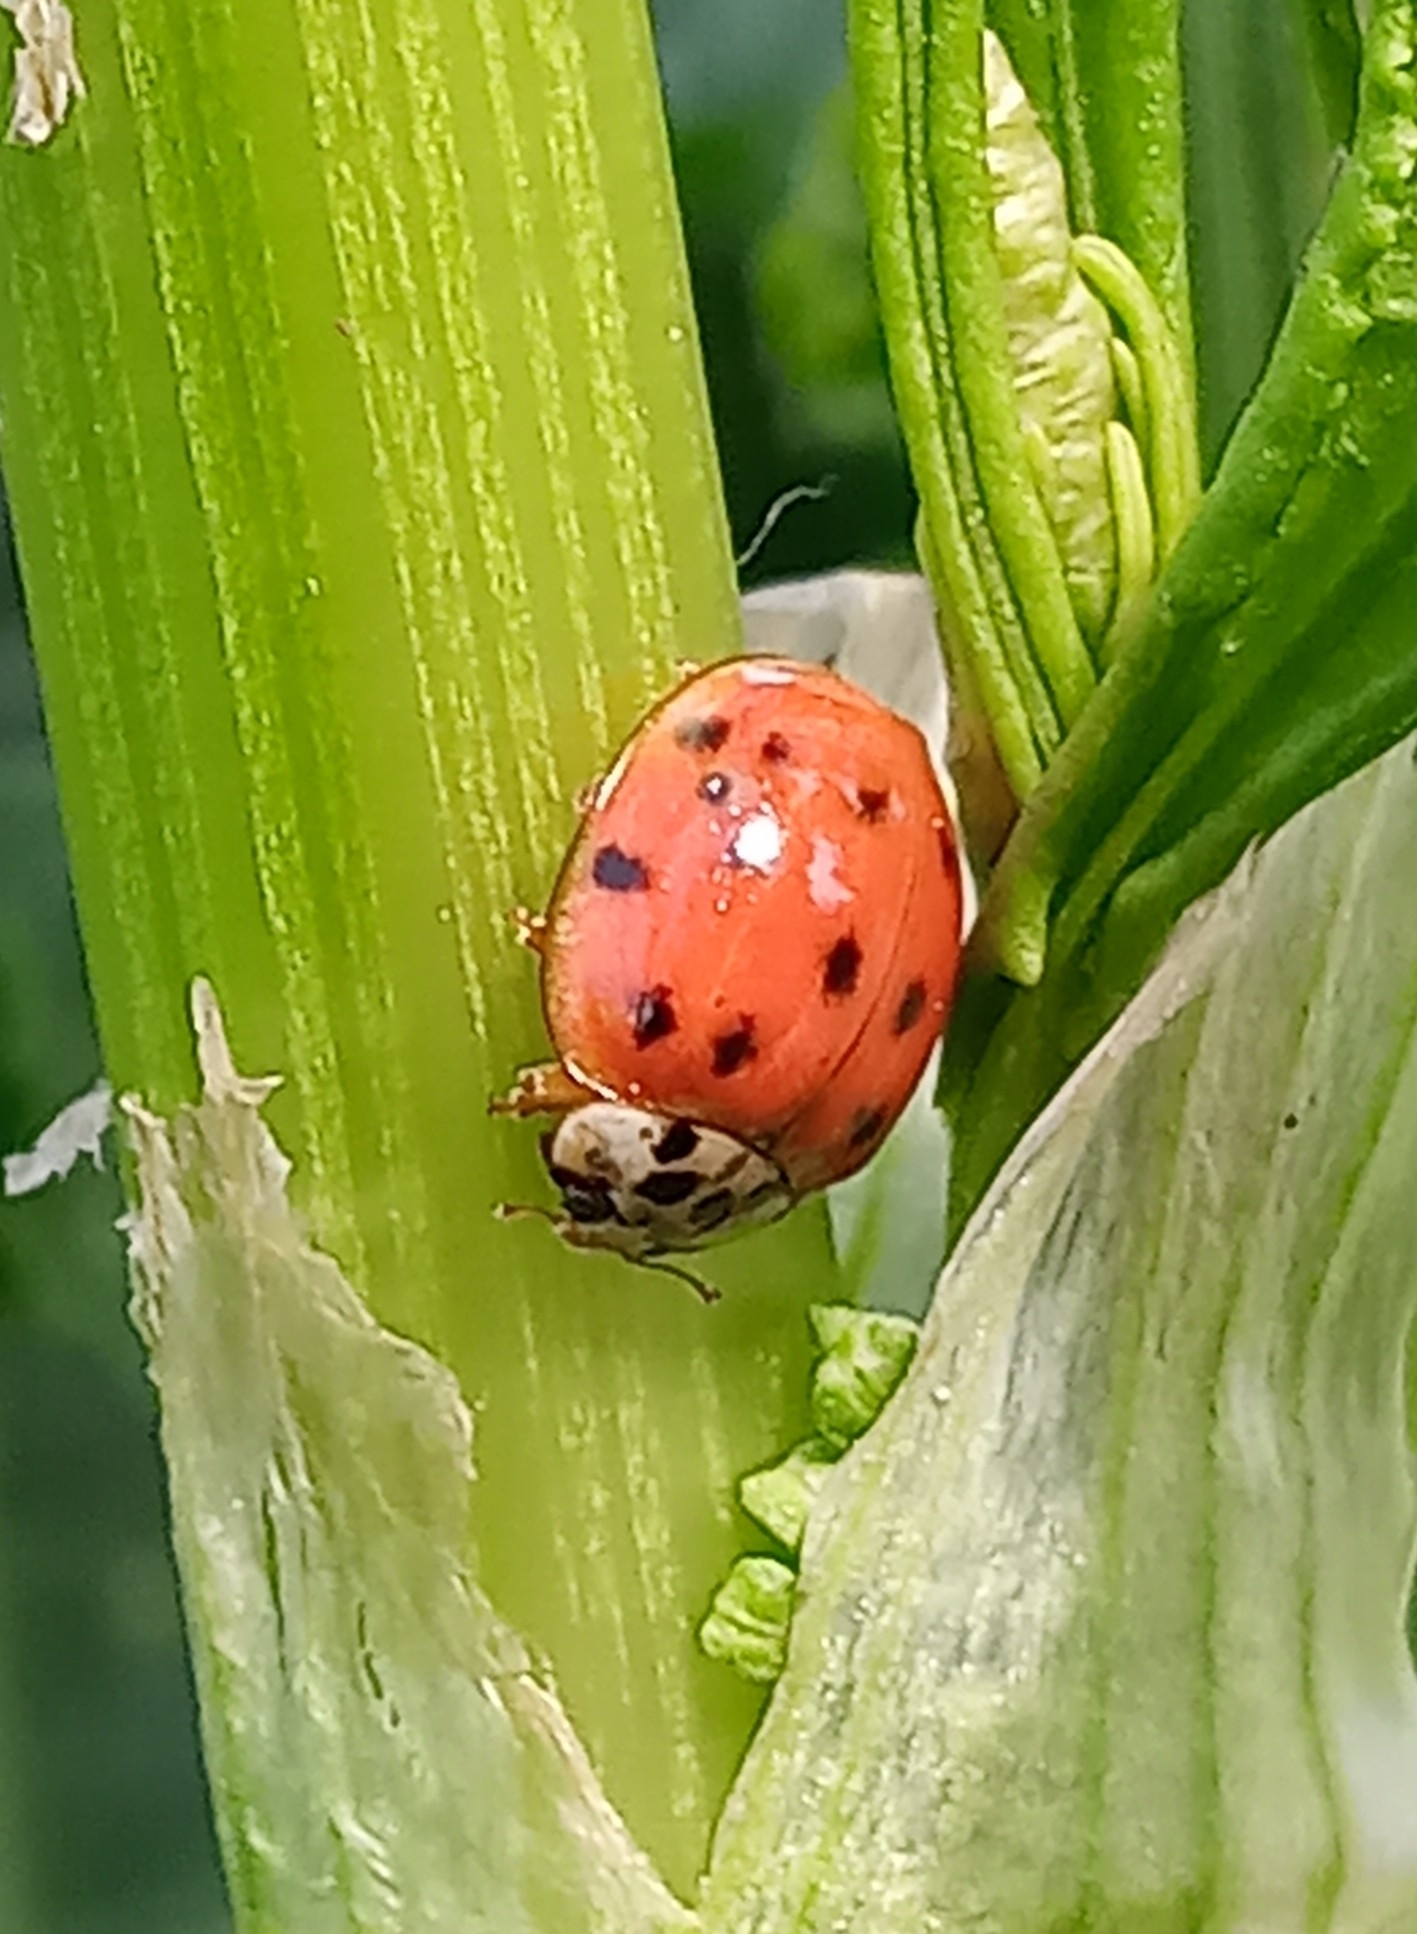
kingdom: Animalia
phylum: Arthropoda
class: Insecta
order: Coleoptera
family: Coccinellidae
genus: Harmonia
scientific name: Harmonia axyridis
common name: Harlequin ladybird
